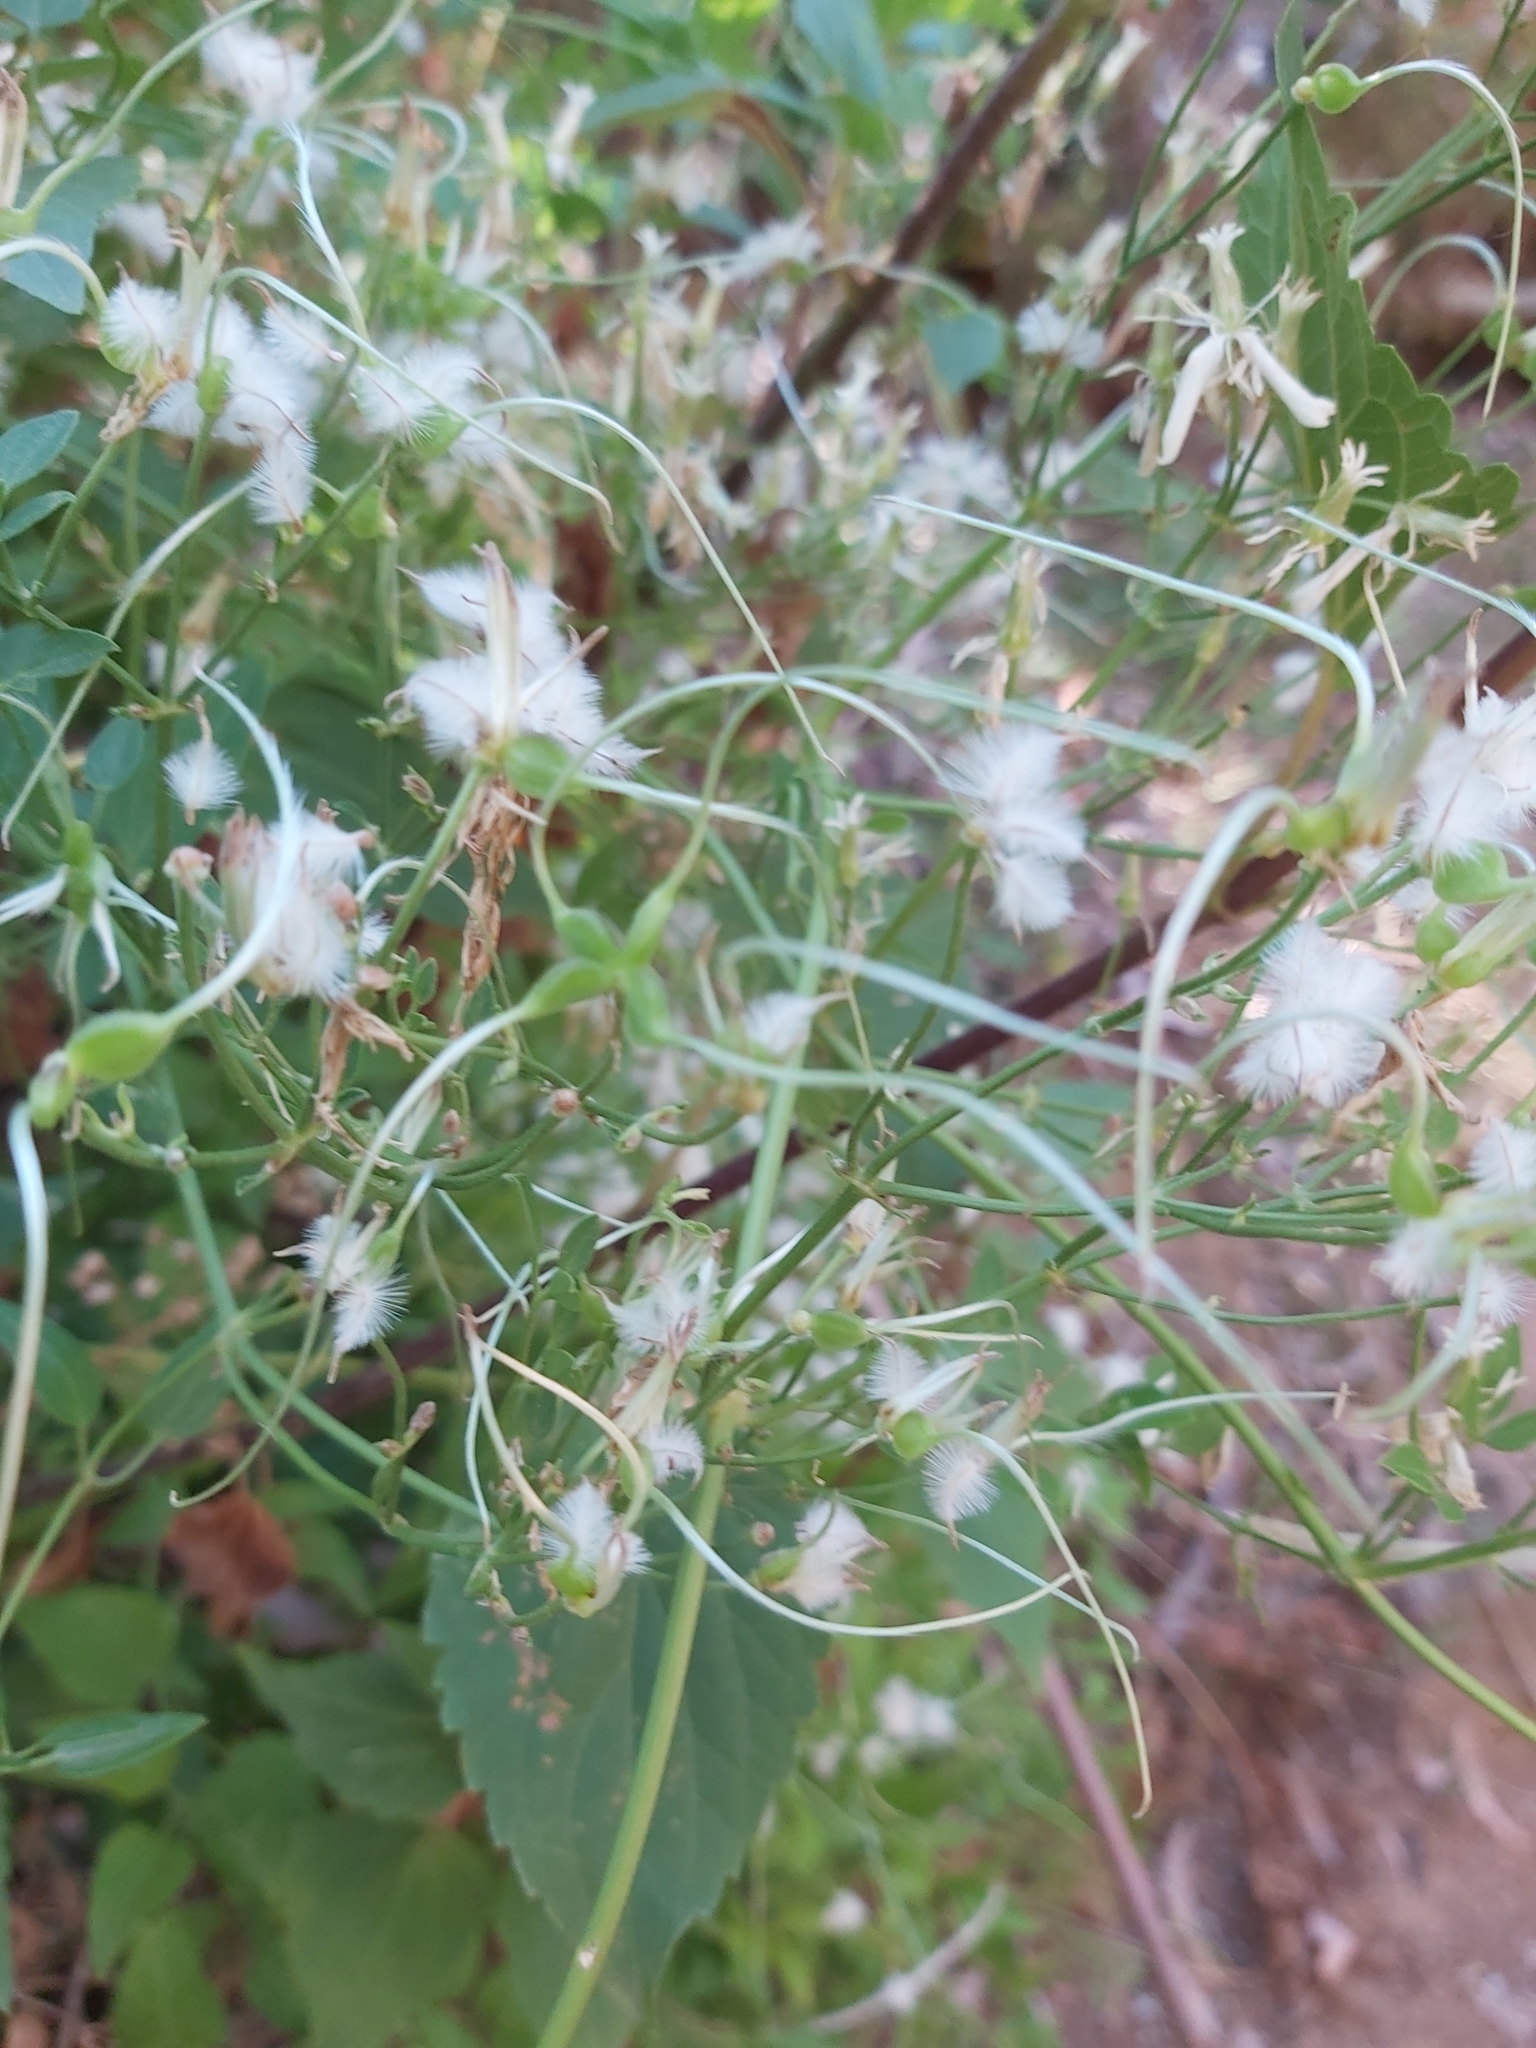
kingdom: Plantae
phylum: Tracheophyta
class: Magnoliopsida
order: Ranunculales
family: Ranunculaceae
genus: Clematis
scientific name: Clematis flammula
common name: Virgin's-bower
